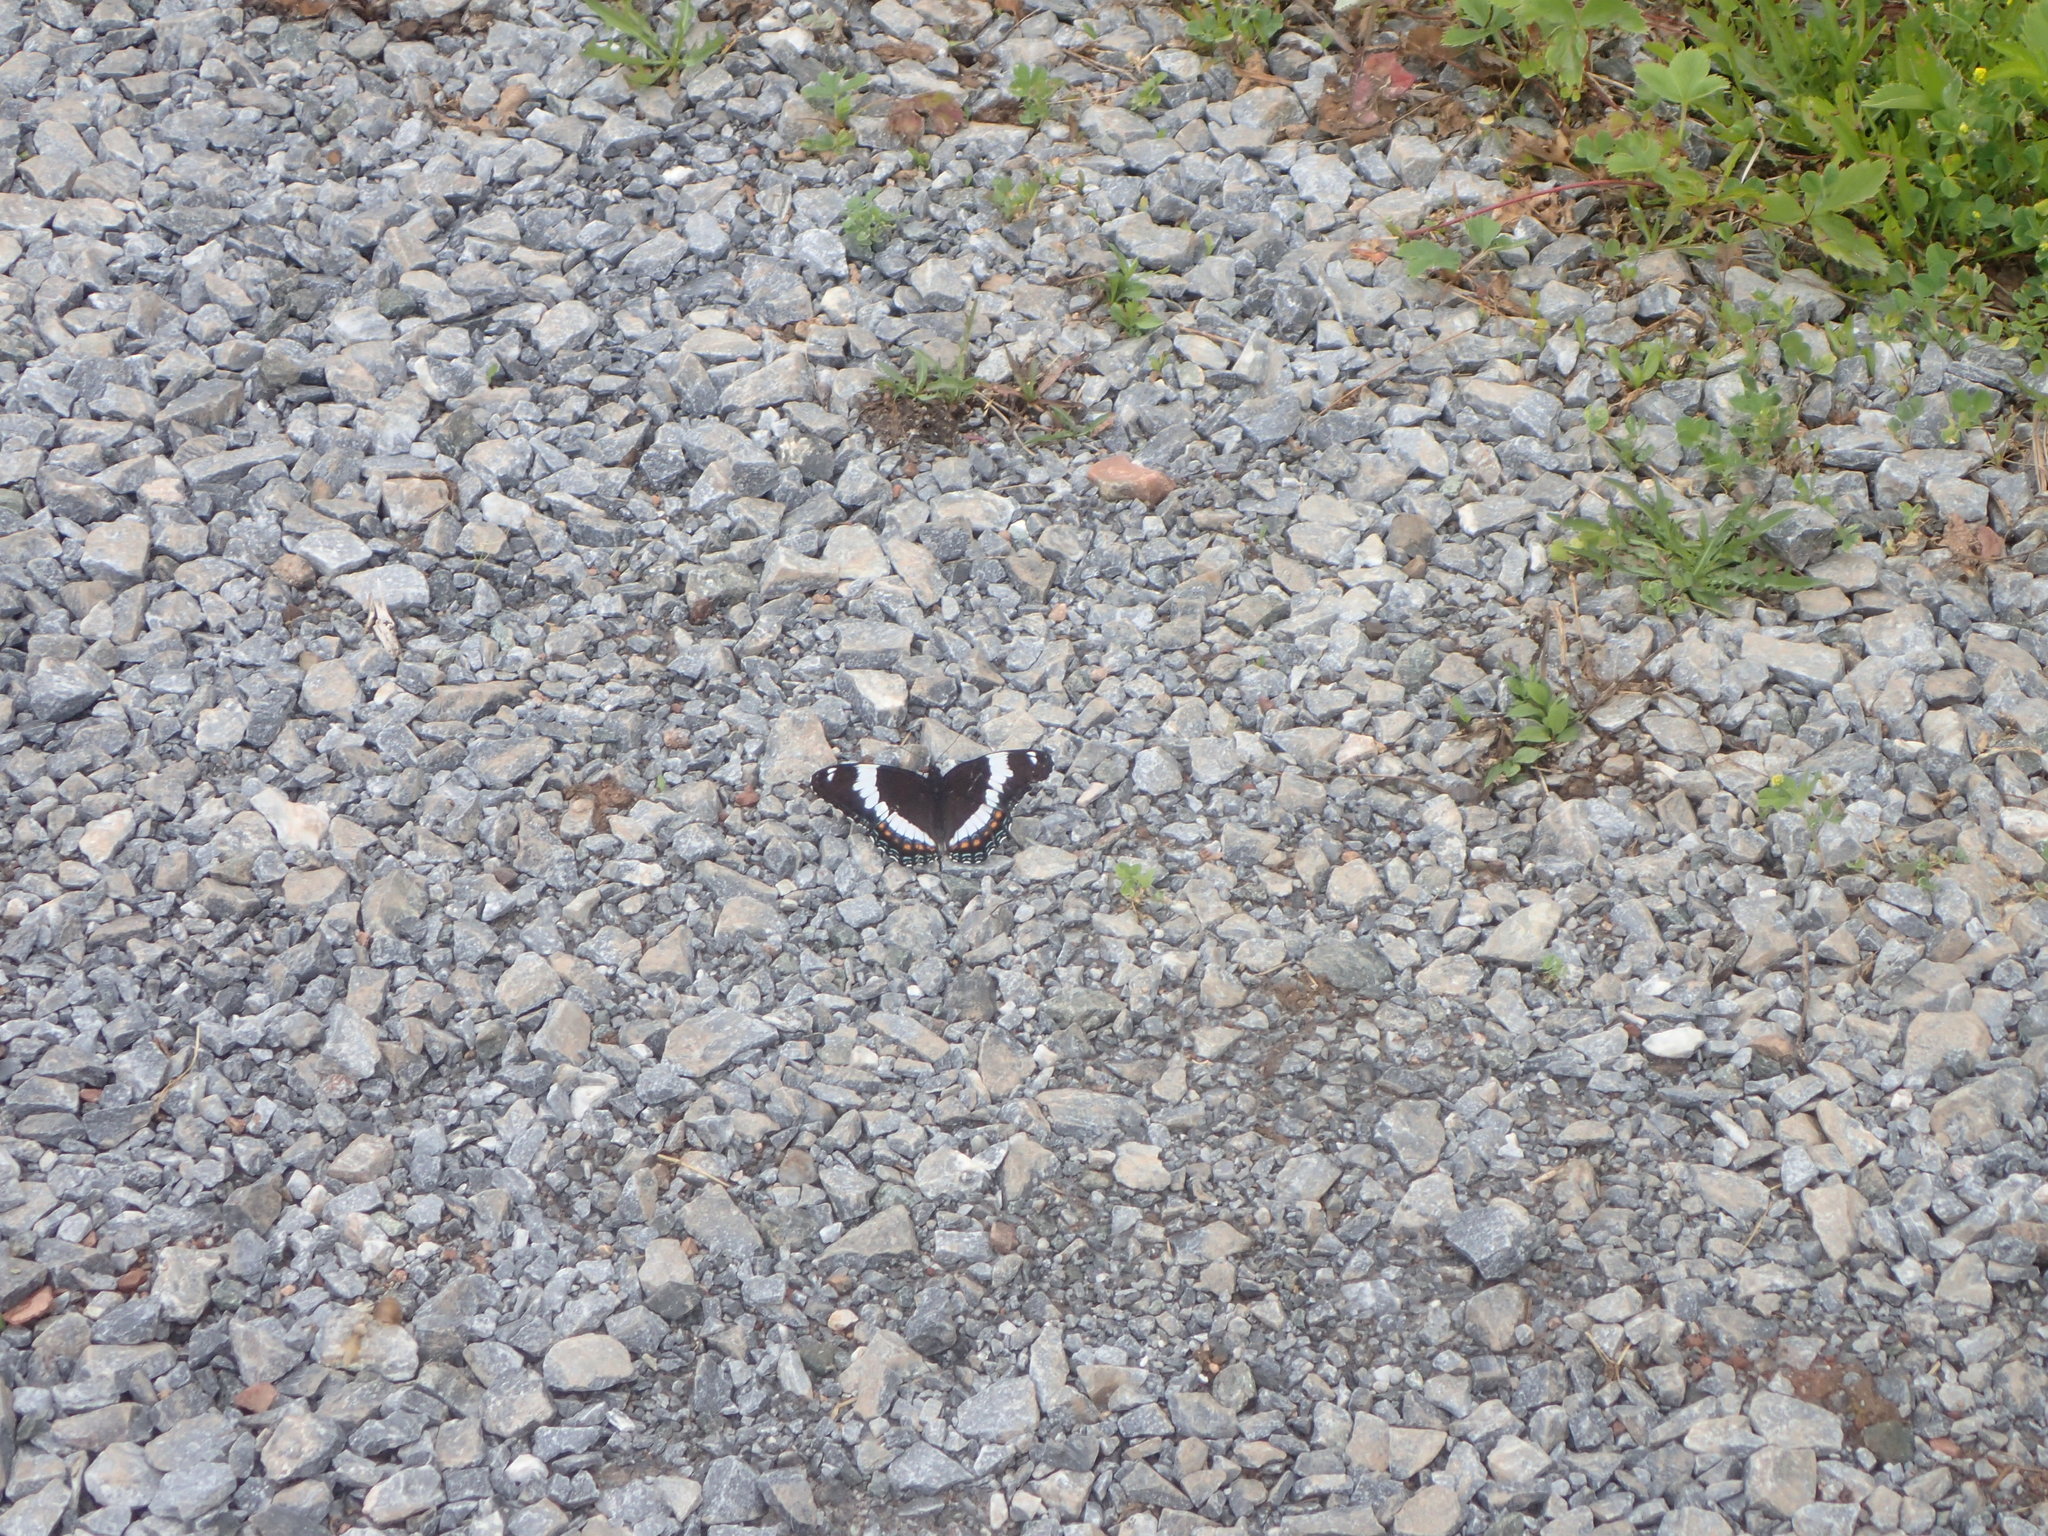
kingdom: Animalia
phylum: Arthropoda
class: Insecta
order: Lepidoptera
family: Nymphalidae
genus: Limenitis
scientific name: Limenitis arthemis
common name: Red-spotted admiral
